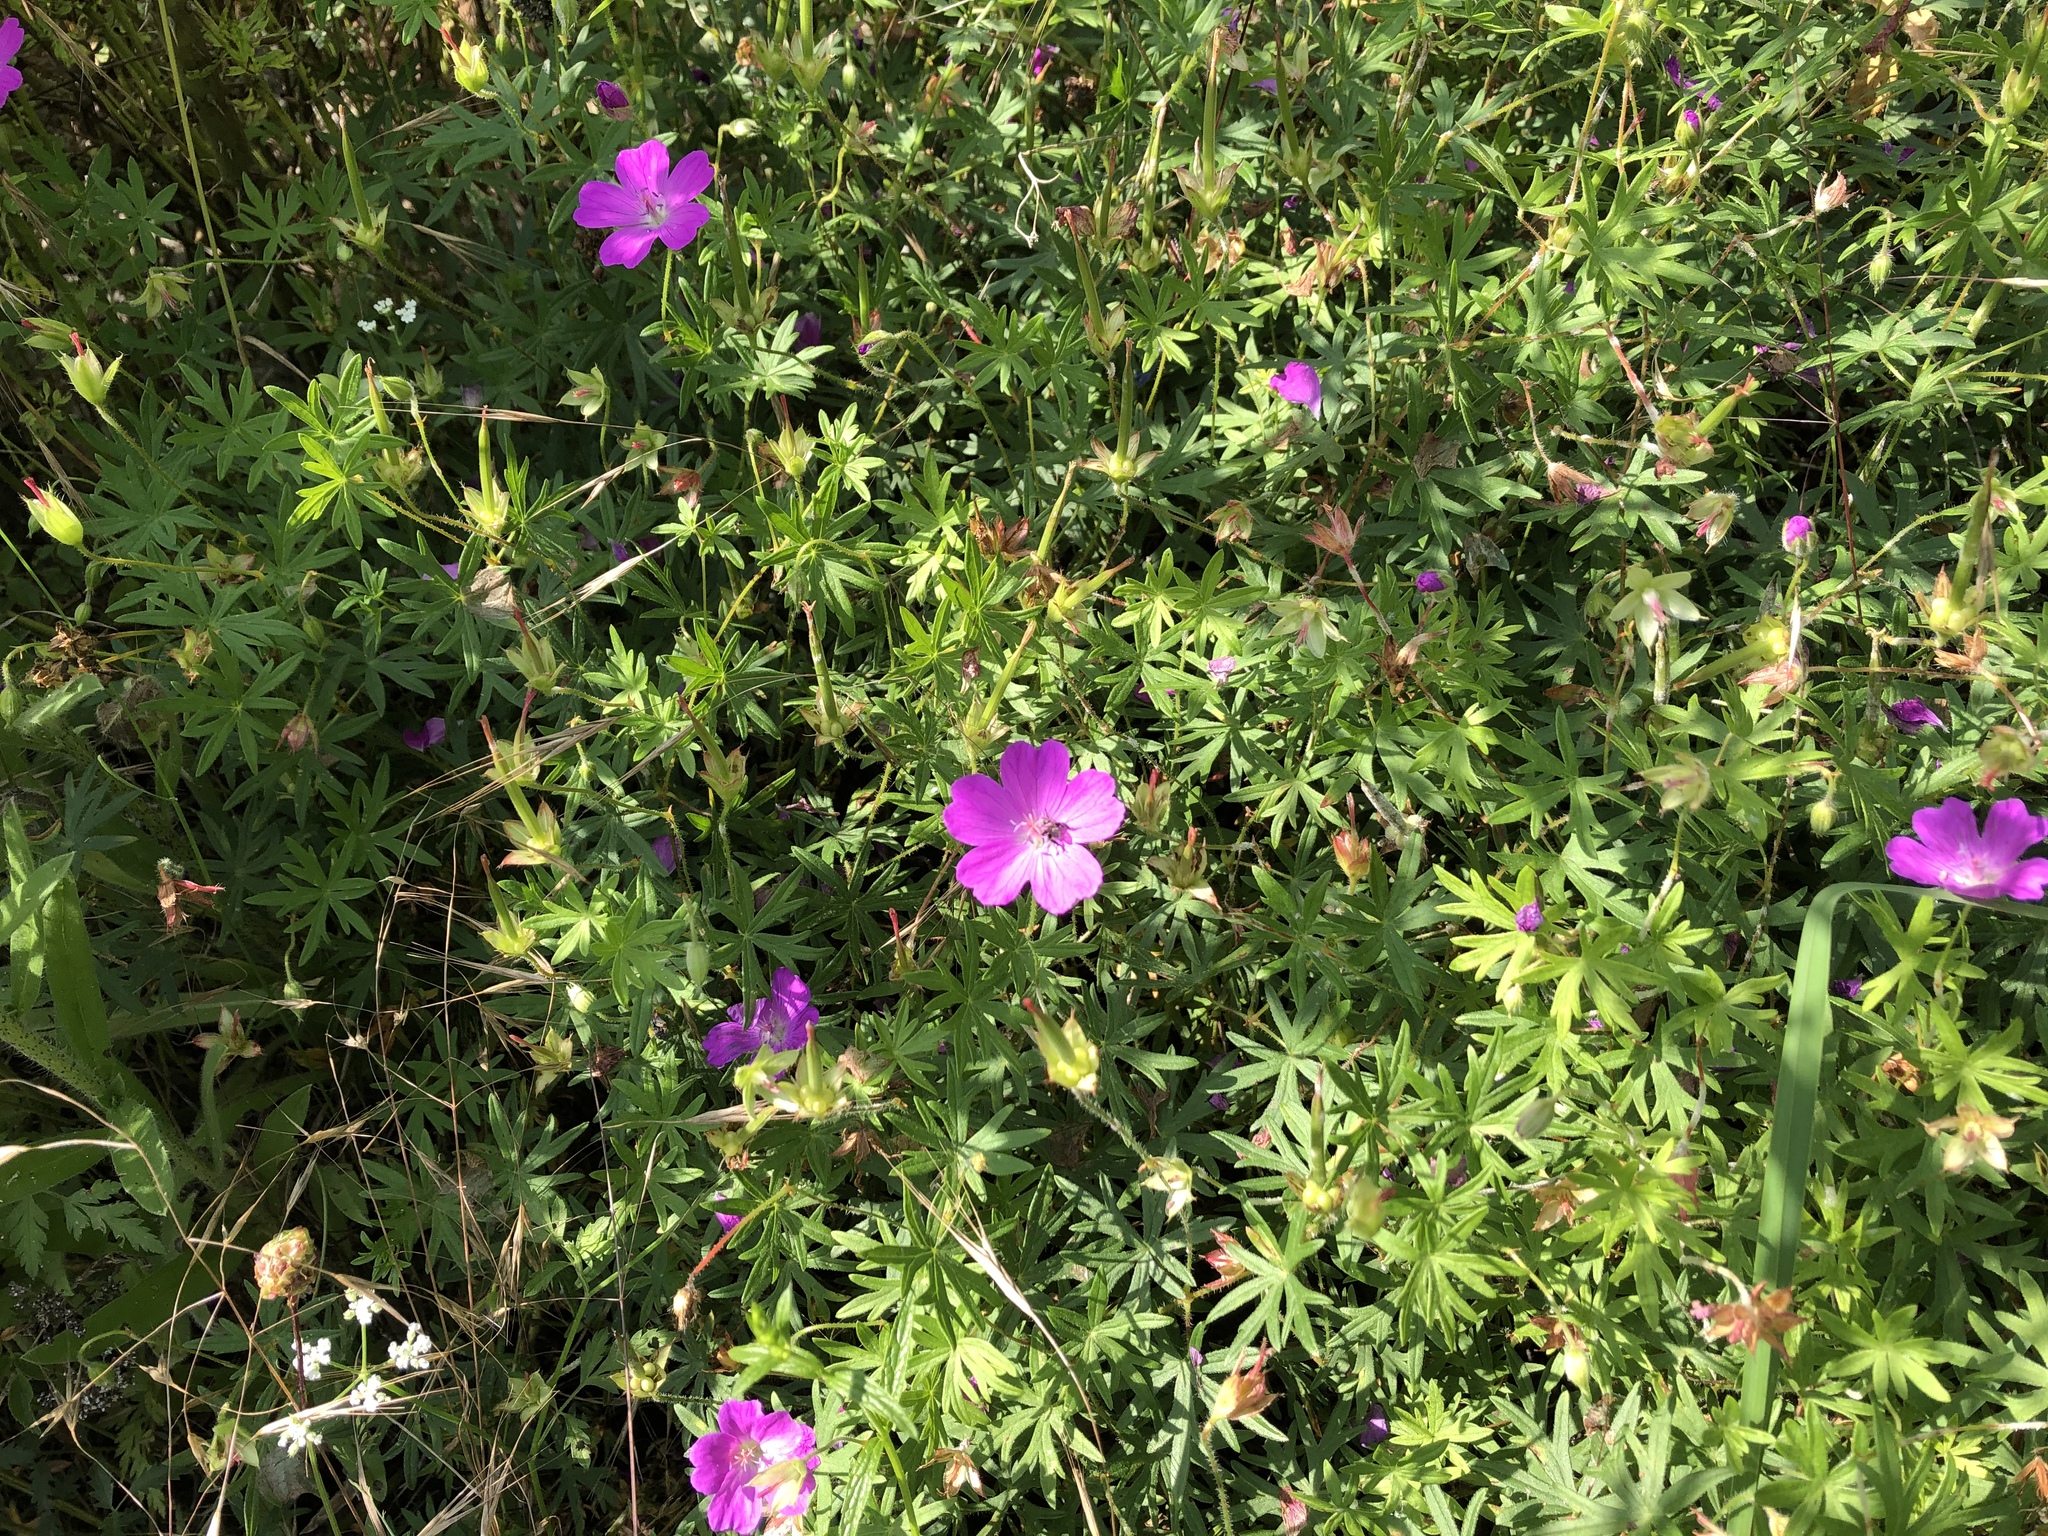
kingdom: Plantae
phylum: Tracheophyta
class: Magnoliopsida
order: Geraniales
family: Geraniaceae
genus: Geranium
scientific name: Geranium sanguineum
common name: Bloody crane's-bill
